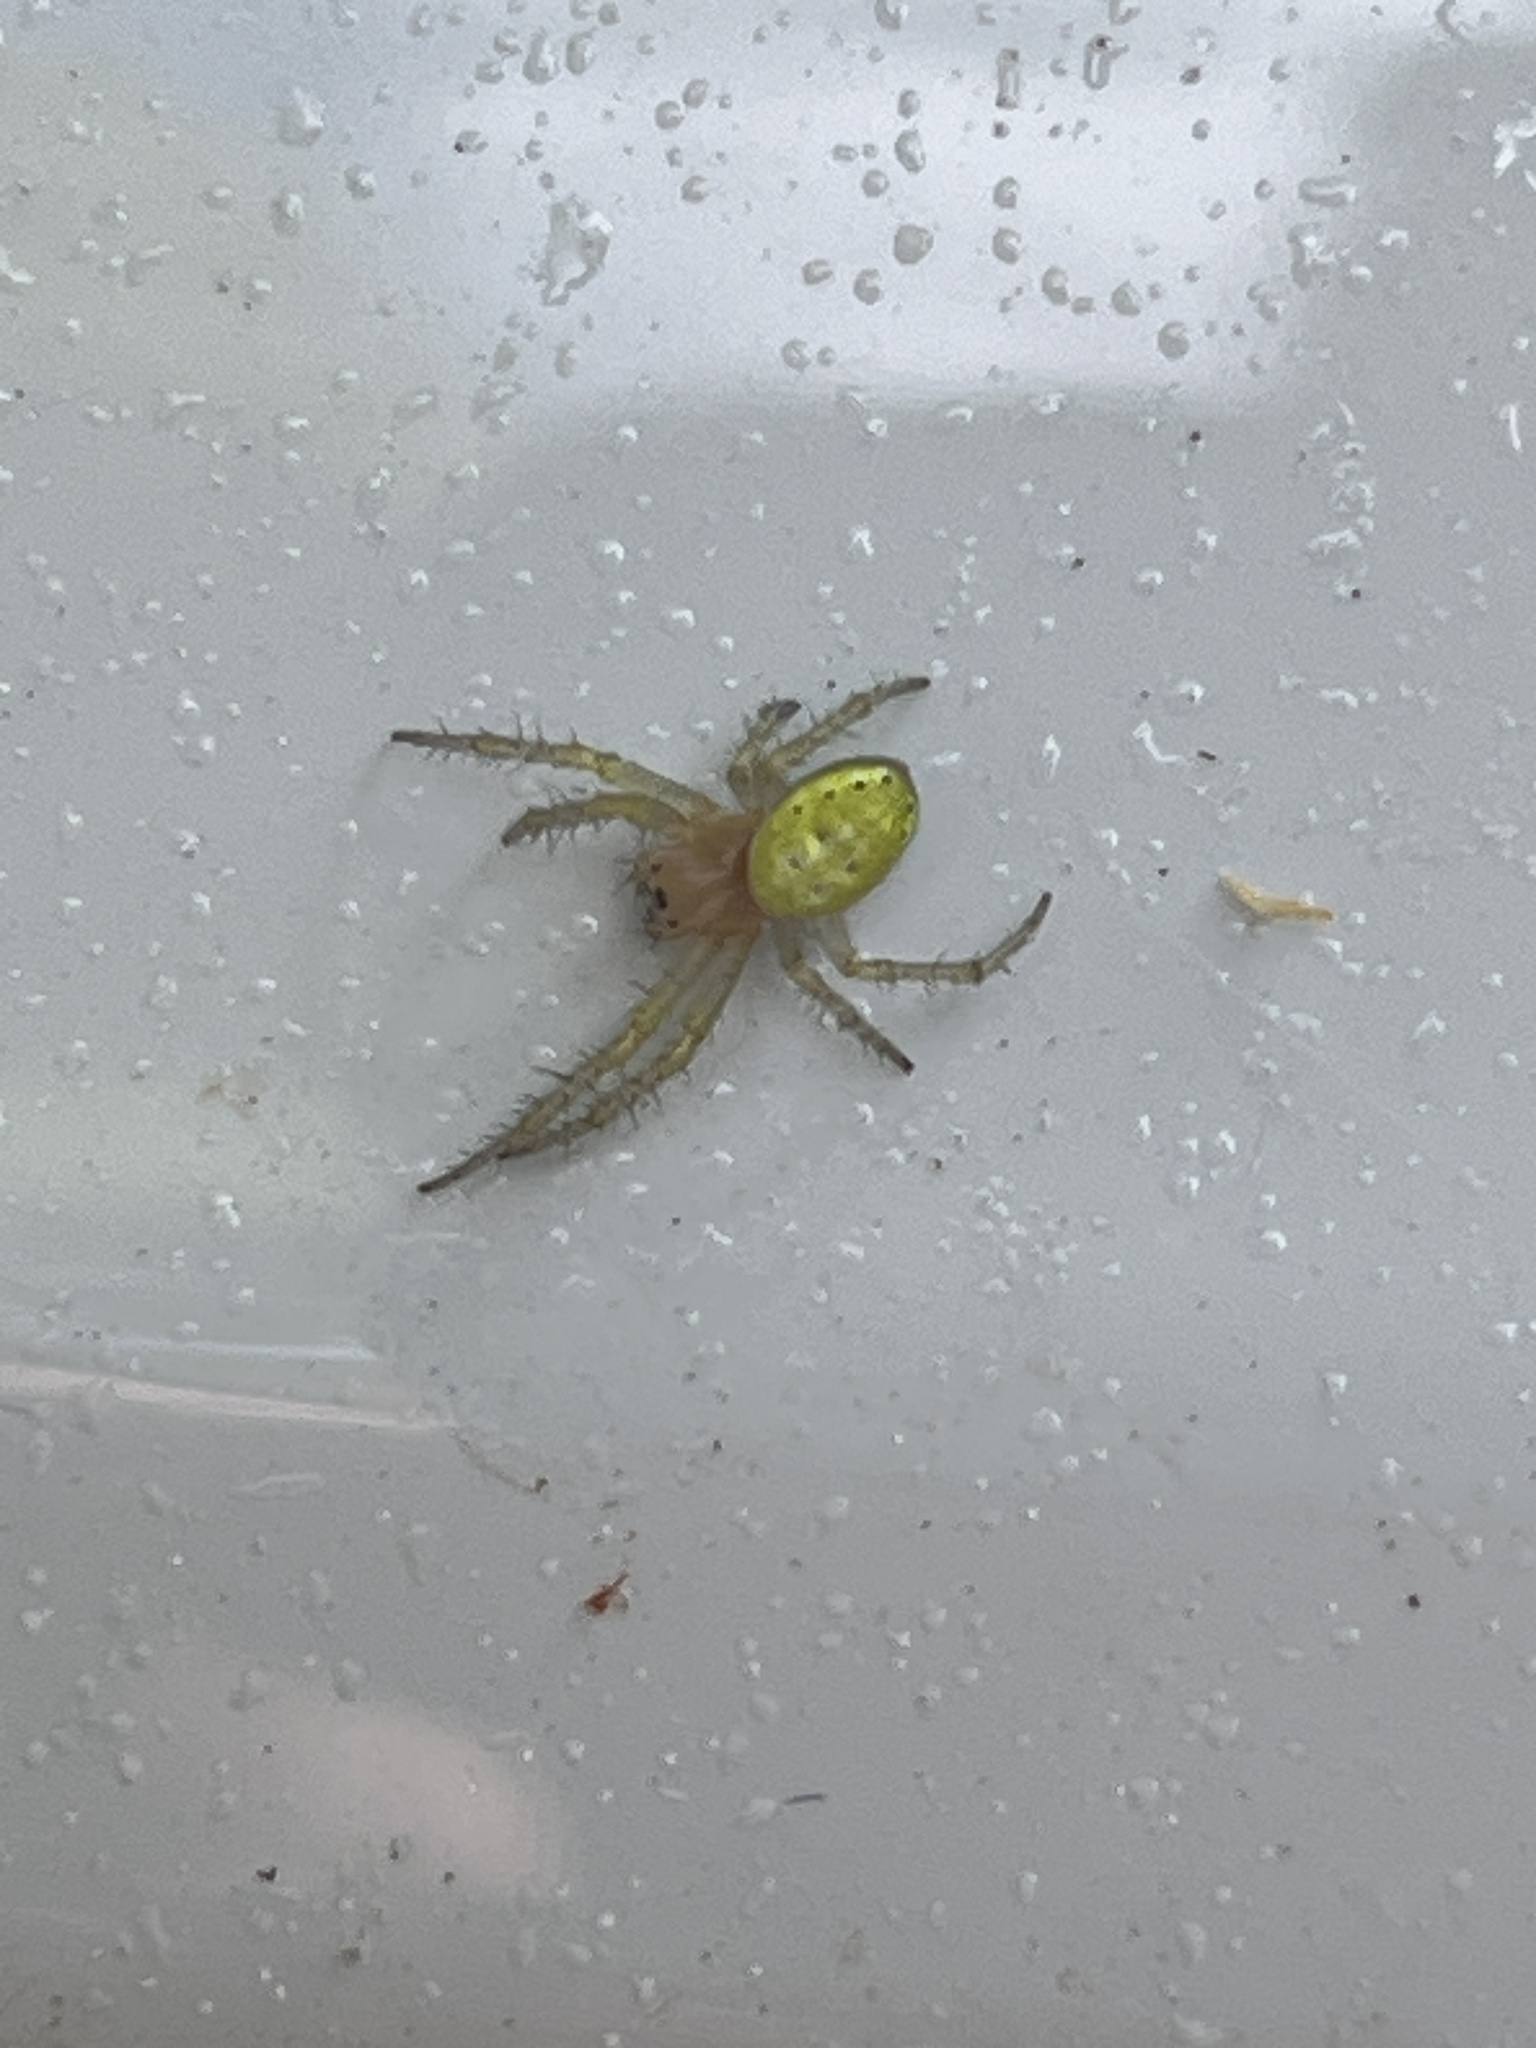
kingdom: Animalia
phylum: Arthropoda
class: Arachnida
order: Araneae
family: Araneidae
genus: Araniella
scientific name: Araniella
